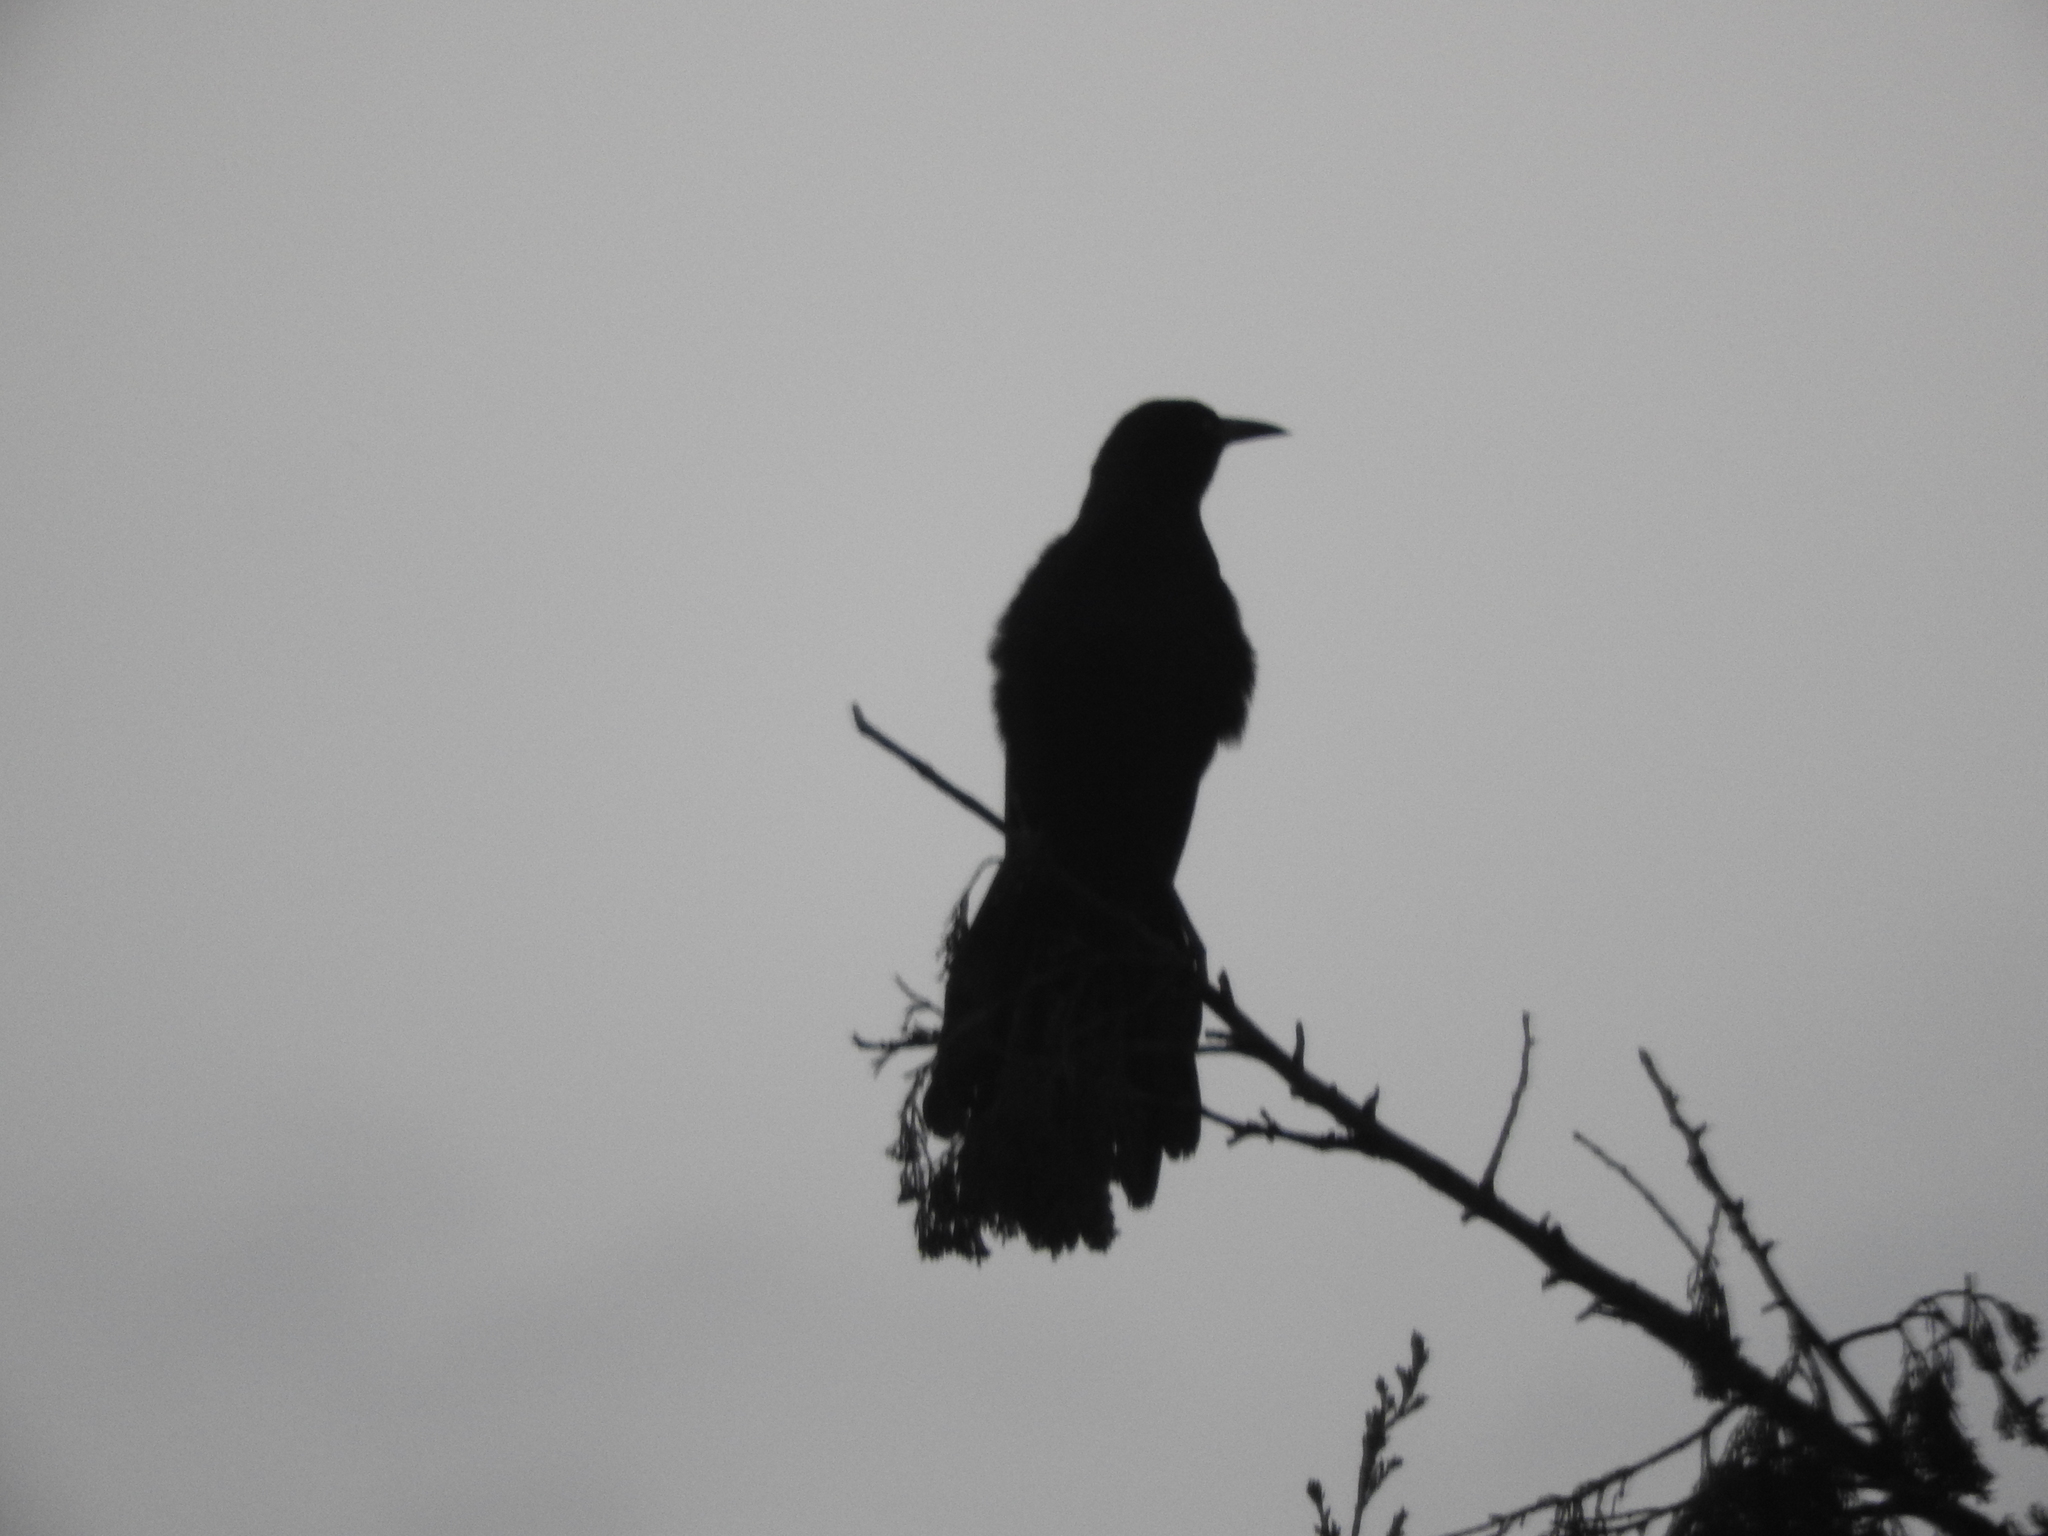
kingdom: Animalia
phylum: Chordata
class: Aves
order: Passeriformes
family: Icteridae
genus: Quiscalus
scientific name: Quiscalus mexicanus
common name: Great-tailed grackle
